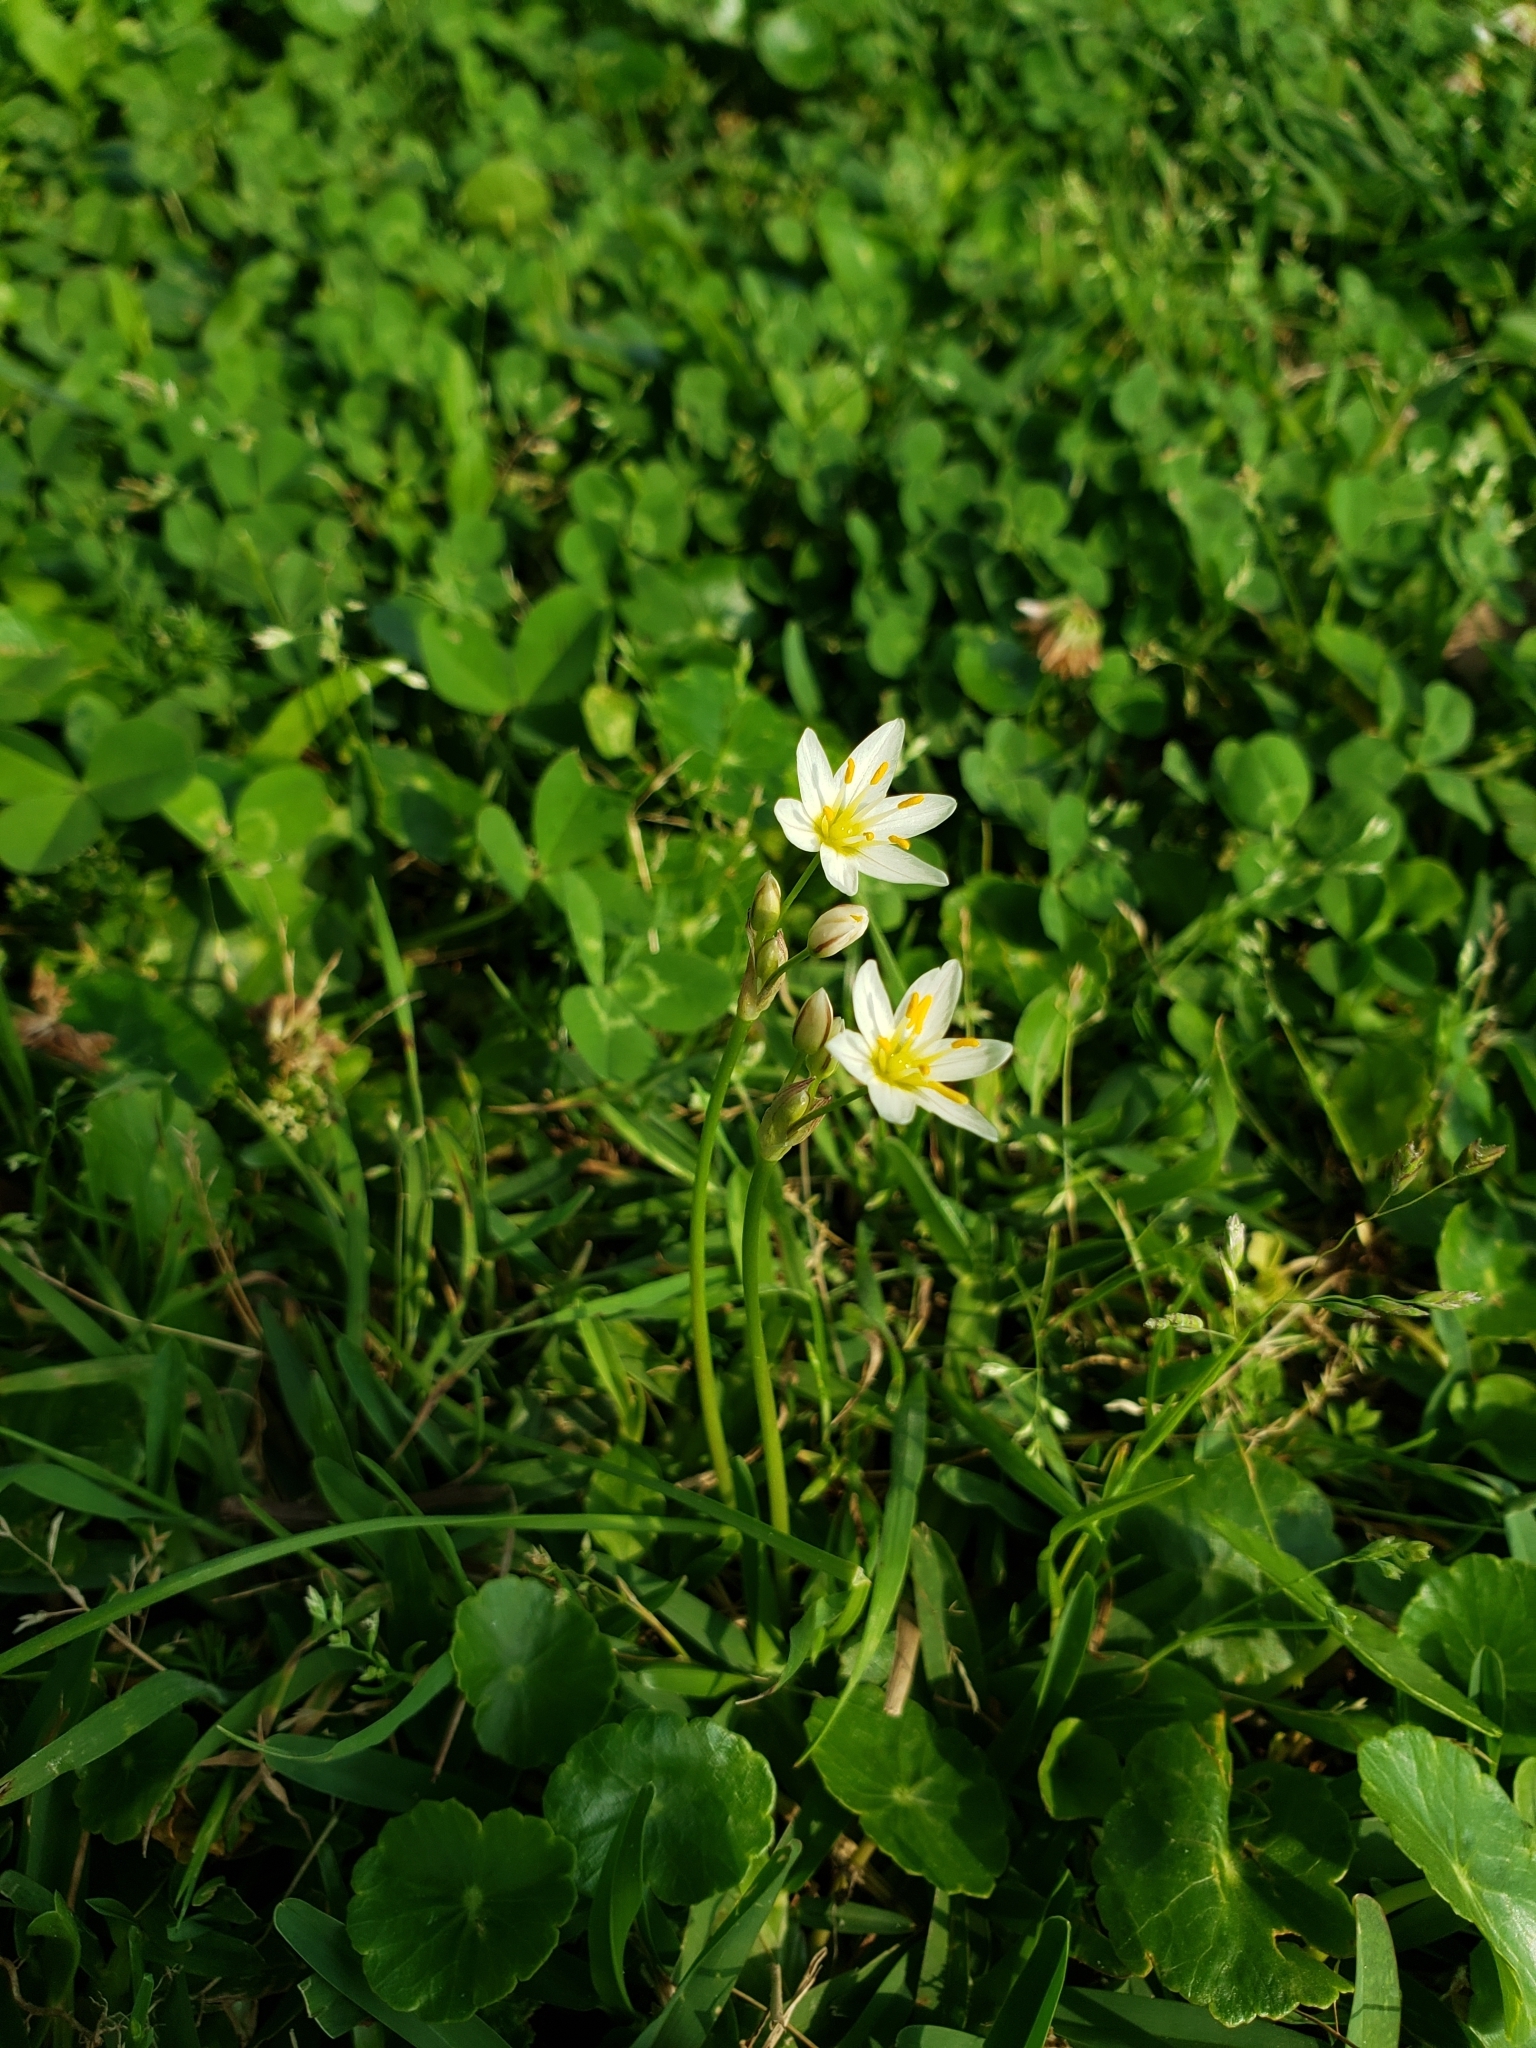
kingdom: Plantae
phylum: Tracheophyta
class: Liliopsida
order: Asparagales
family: Amaryllidaceae
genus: Nothoscordum
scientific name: Nothoscordum bivalve
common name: Crow-poison
